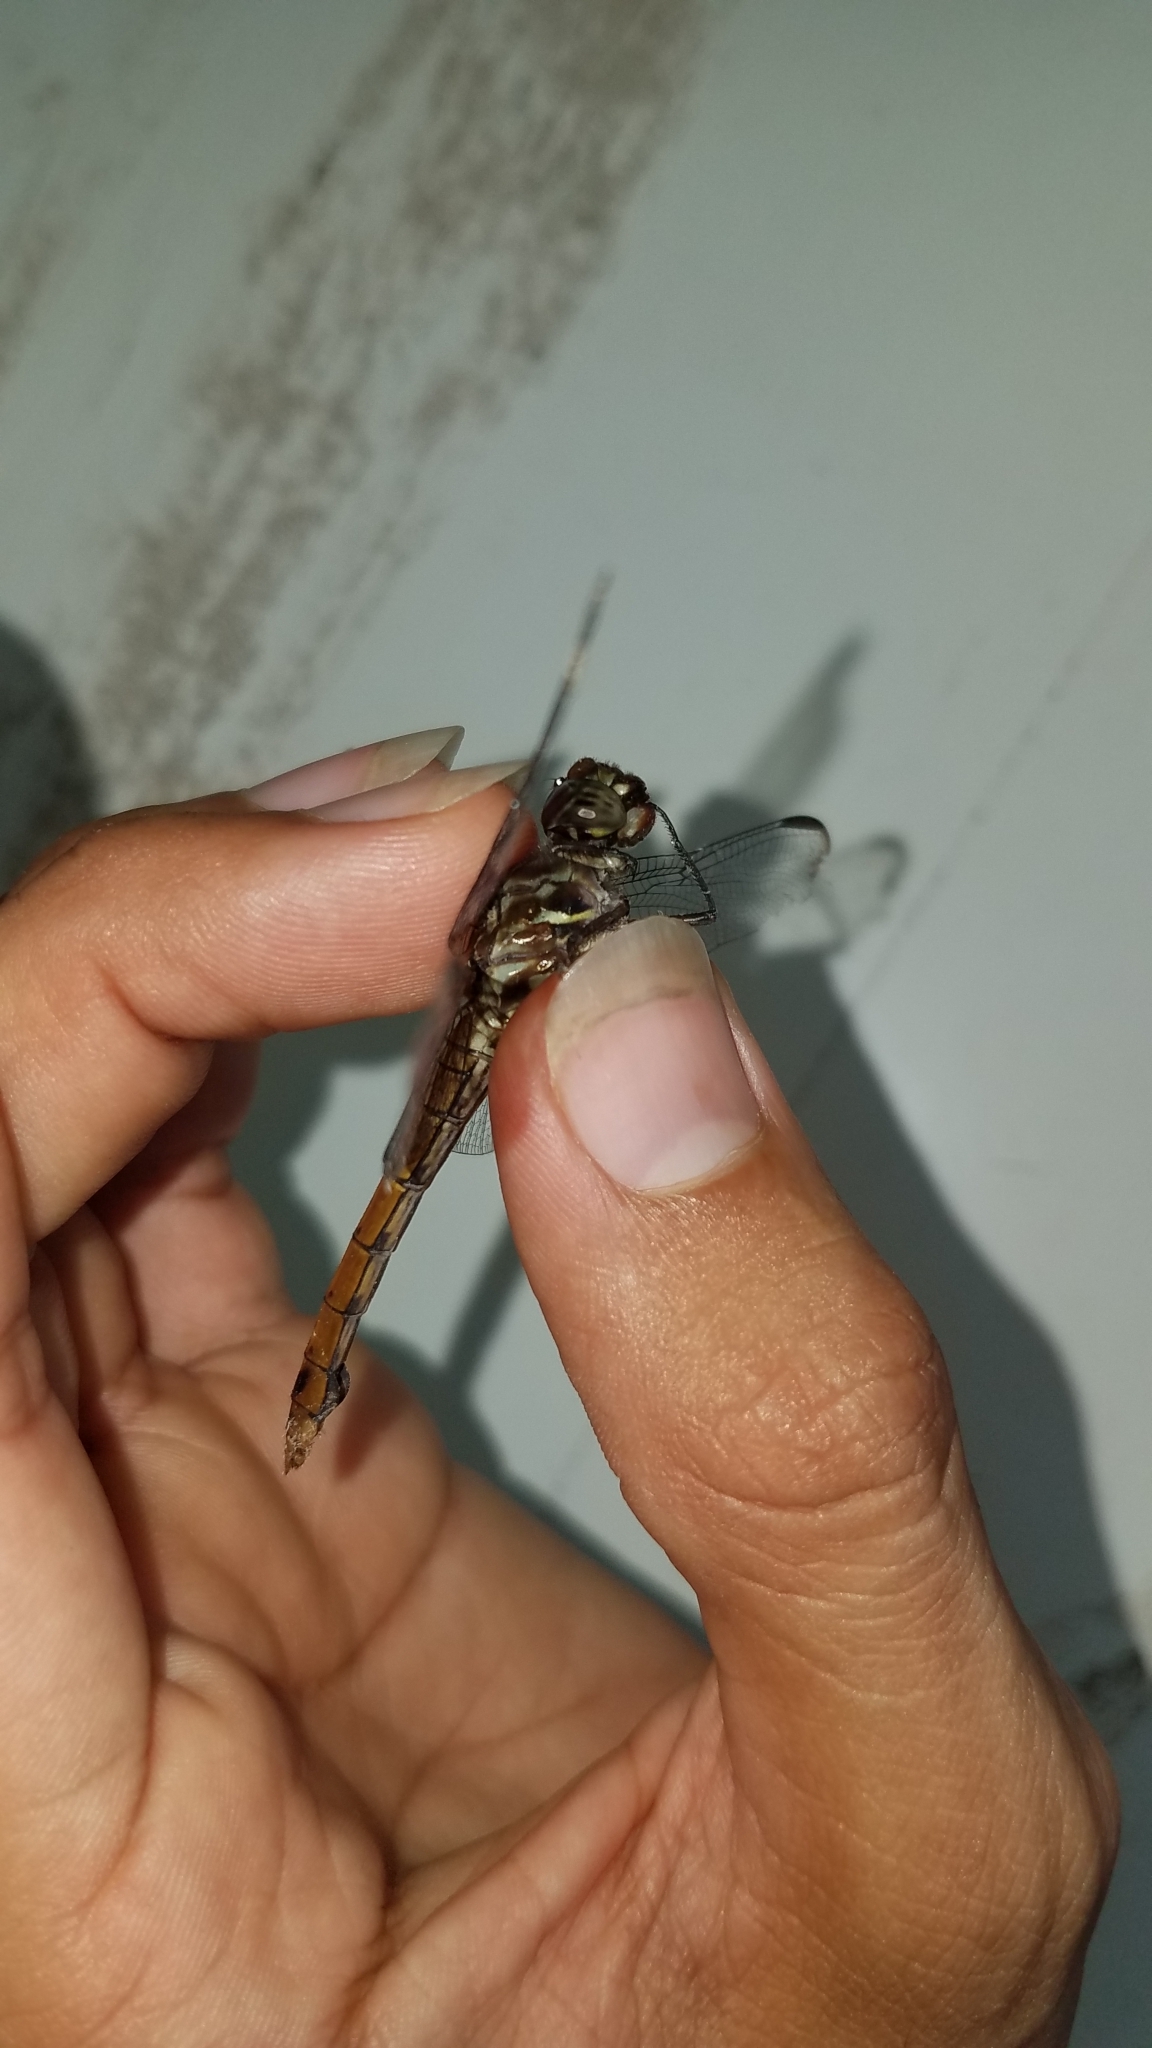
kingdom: Animalia
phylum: Arthropoda
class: Insecta
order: Odonata
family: Libellulidae
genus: Orthemis
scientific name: Orthemis schmidti
